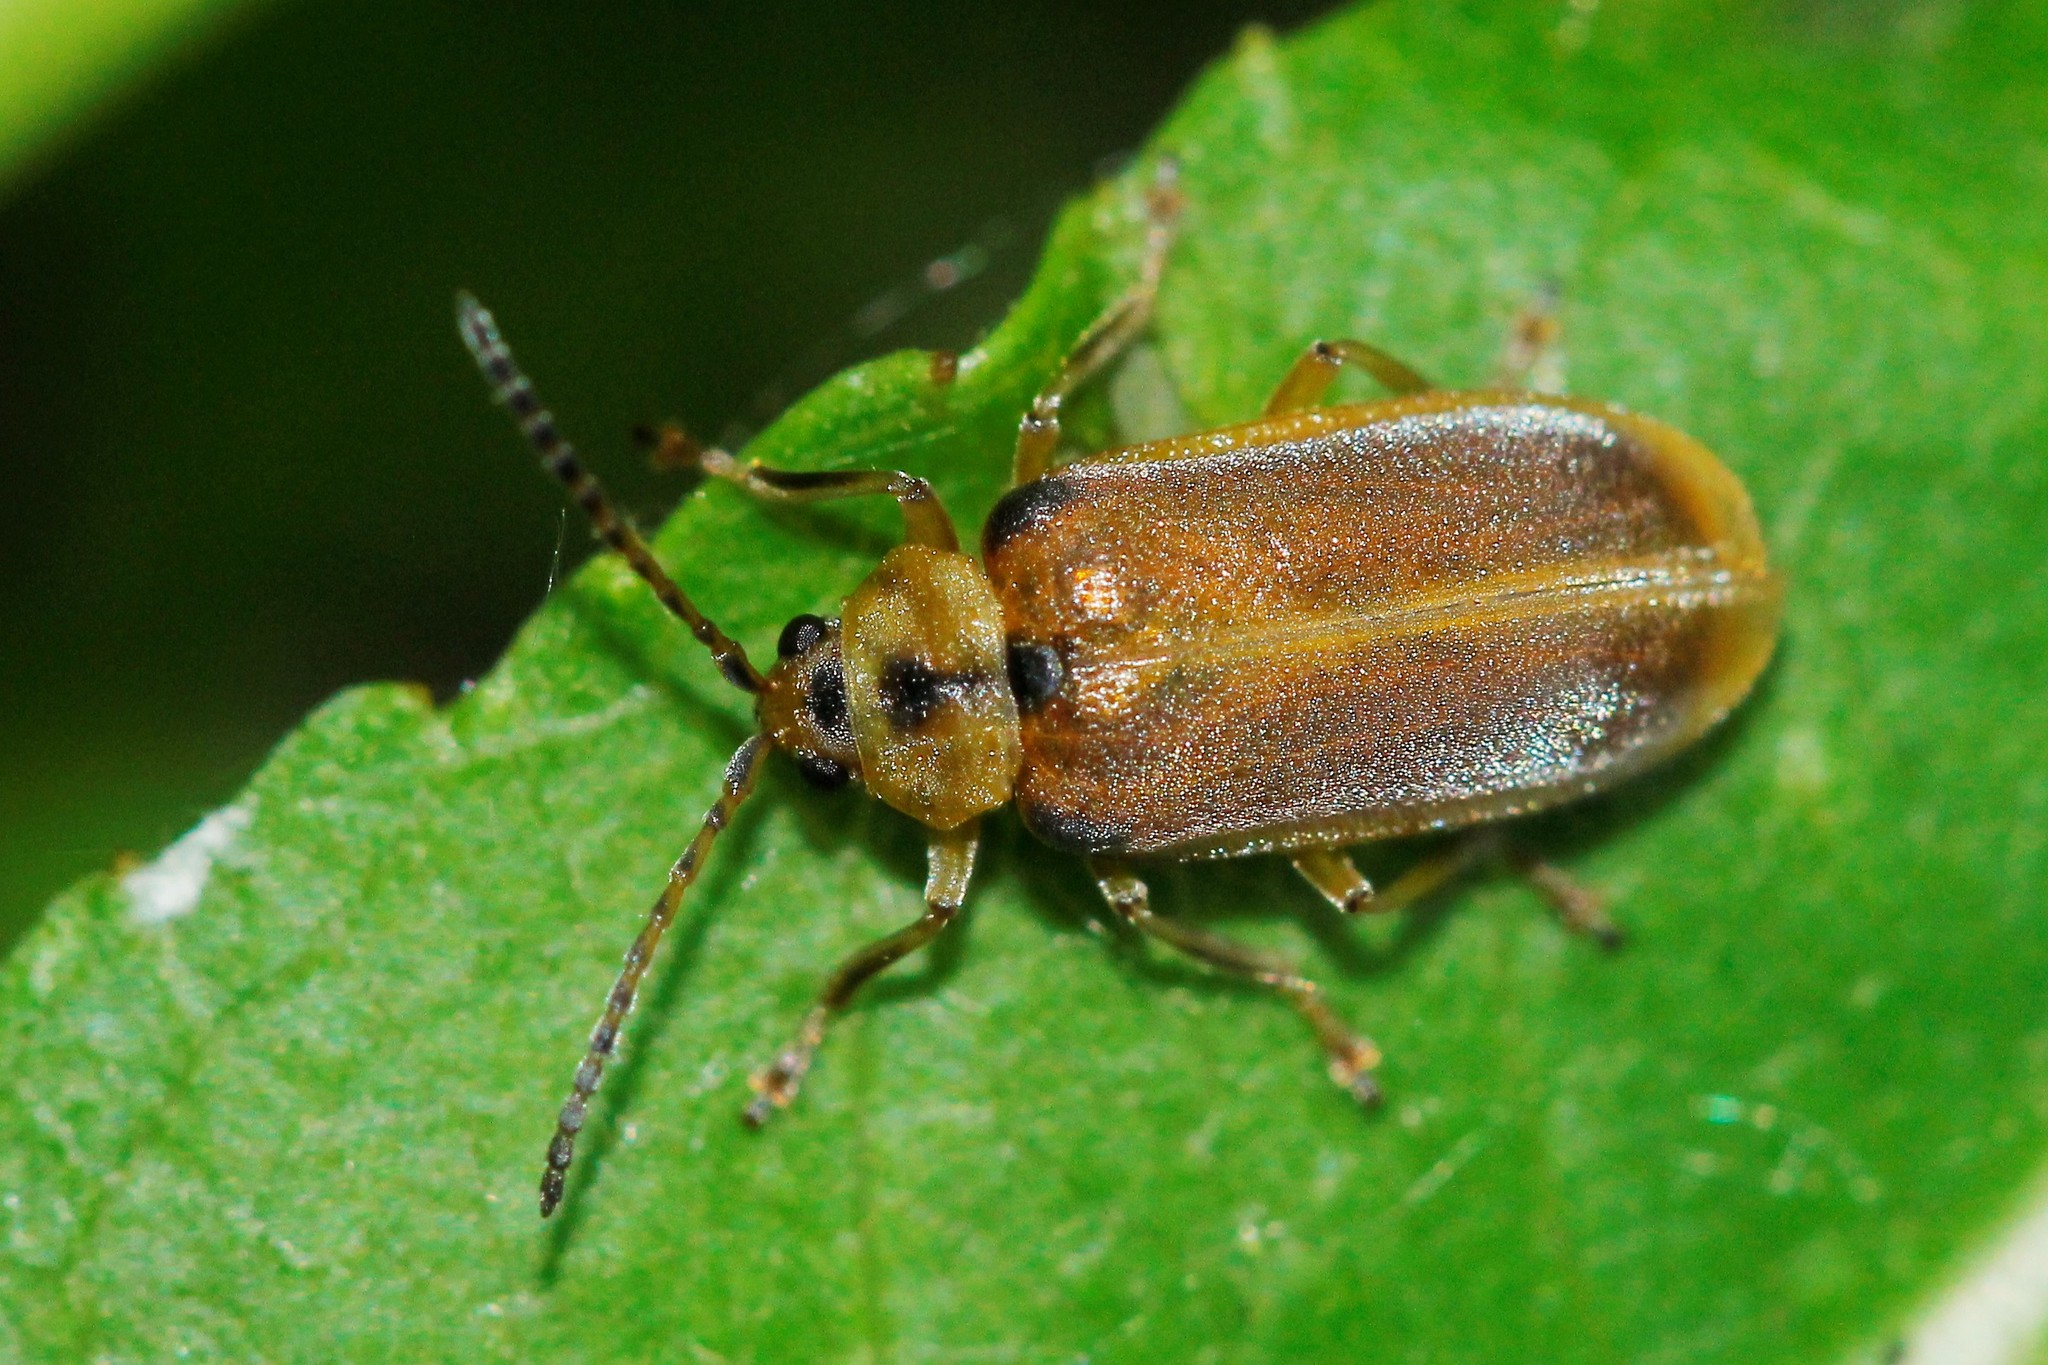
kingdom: Animalia
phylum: Arthropoda
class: Insecta
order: Coleoptera
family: Chrysomelidae
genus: Galerucella
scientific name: Galerucella lineola
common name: Brown willow beetle
